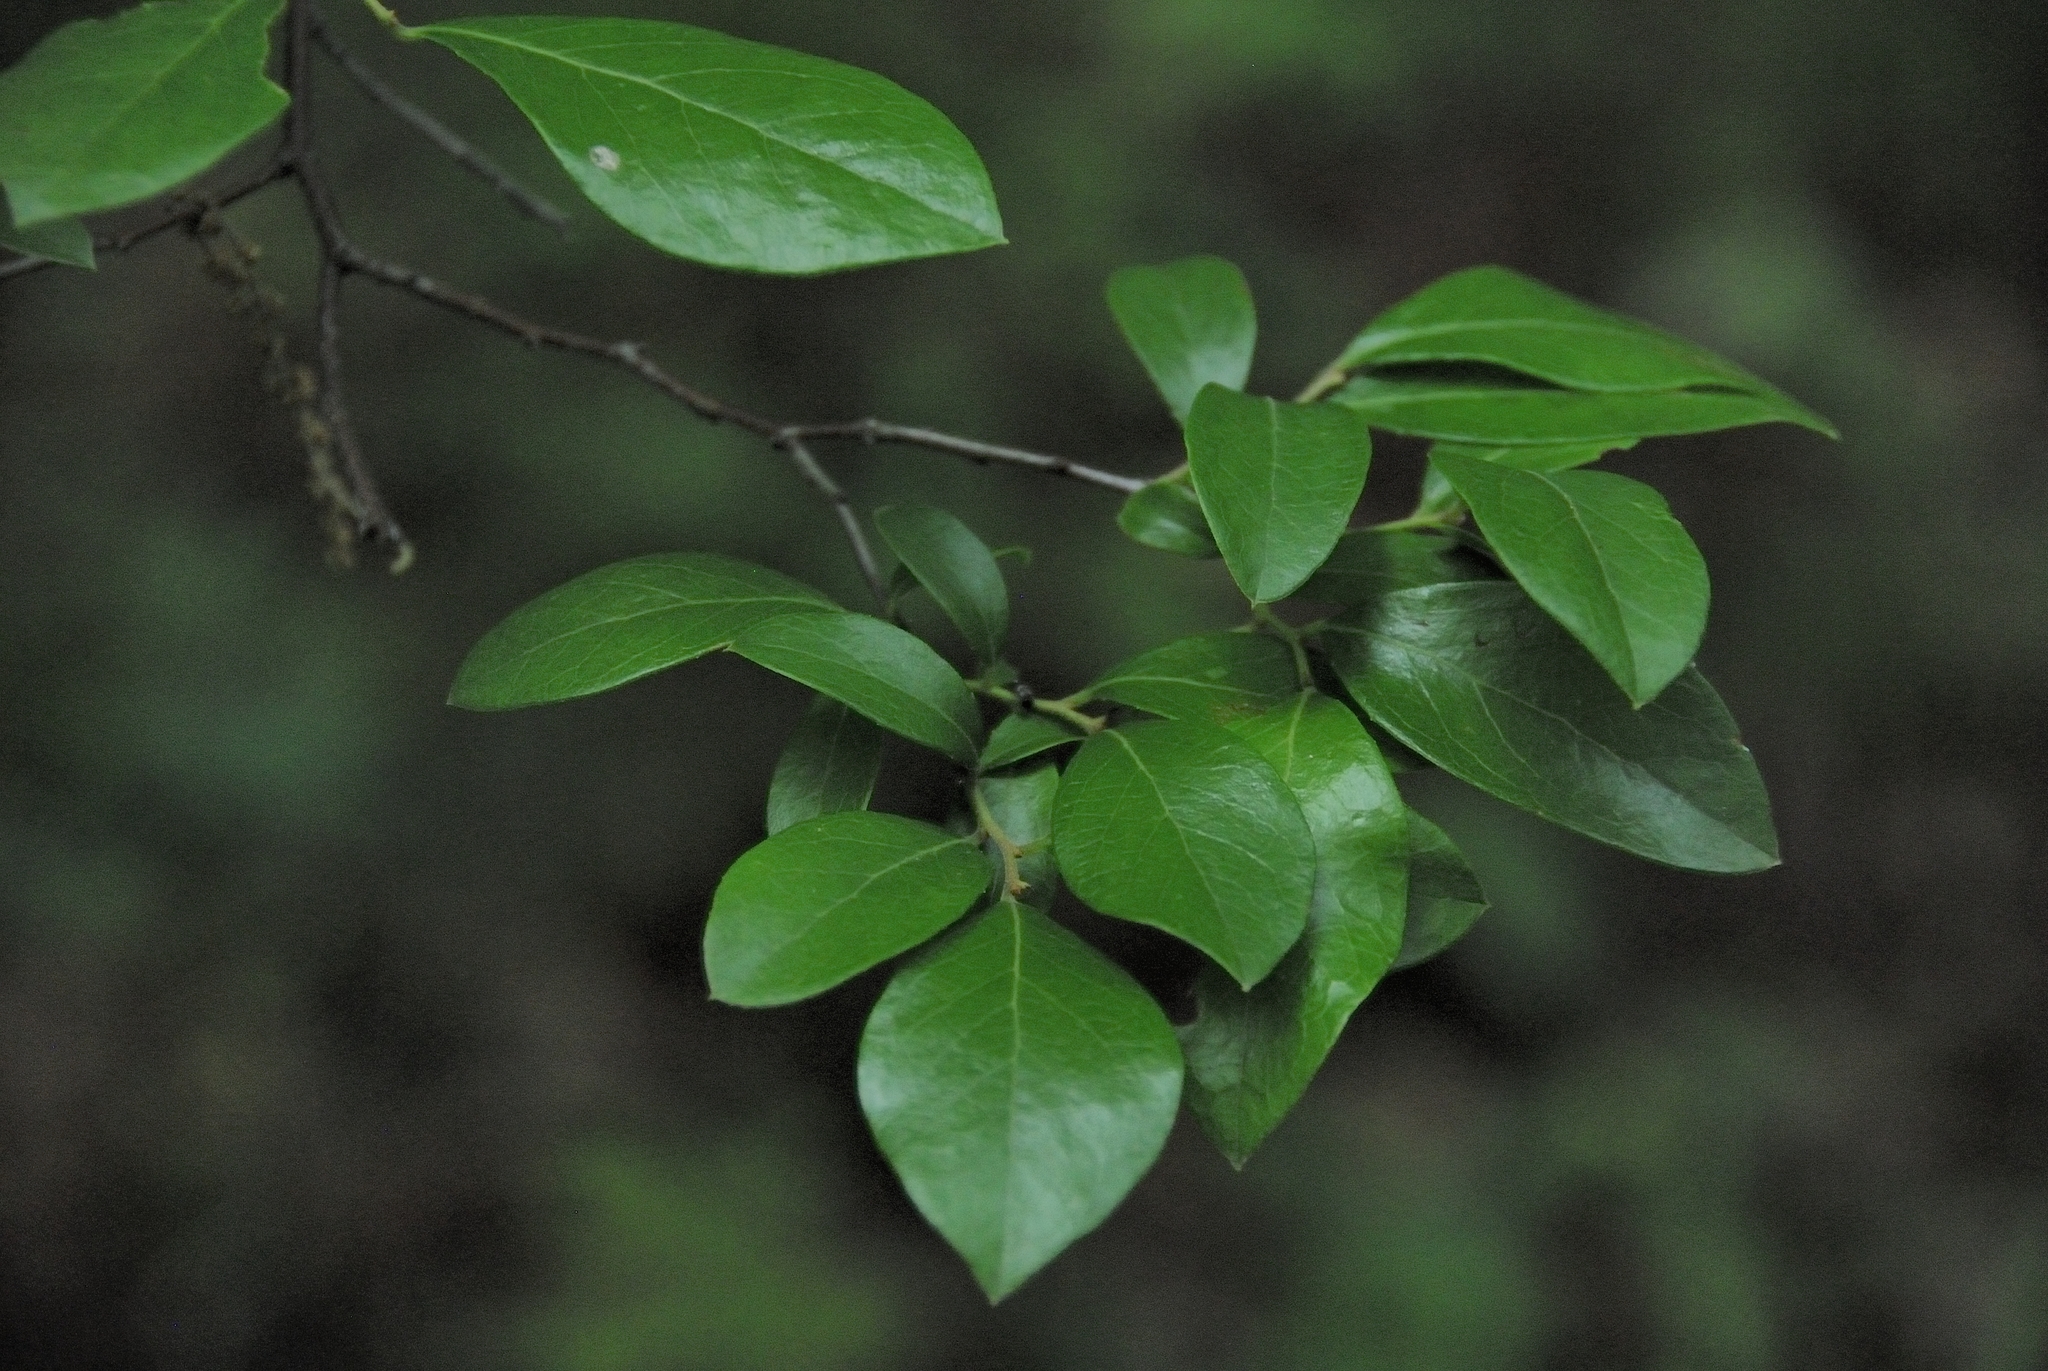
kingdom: Plantae
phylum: Tracheophyta
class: Magnoliopsida
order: Ericales
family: Ericaceae
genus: Vaccinium
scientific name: Vaccinium arboreum
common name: Farkleberry
